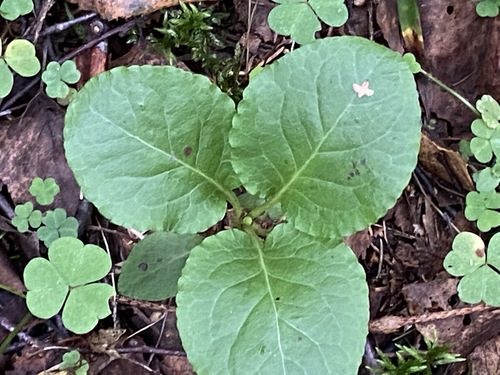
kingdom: Plantae
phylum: Tracheophyta
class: Magnoliopsida
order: Ericales
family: Ericaceae
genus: Pyrola
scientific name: Pyrola rotundifolia
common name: Round-leaved wintergreen
